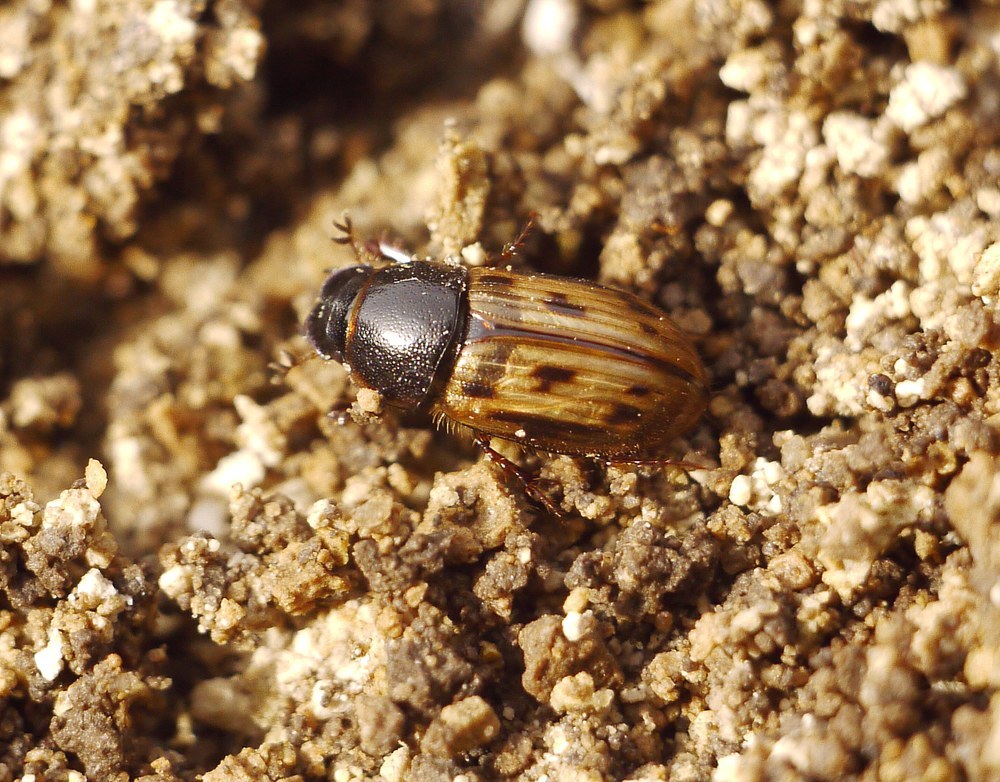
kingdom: Animalia
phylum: Arthropoda
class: Insecta
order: Coleoptera
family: Scarabaeidae
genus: Chilothorax
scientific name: Chilothorax distinctus
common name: Maculated dung beetle
